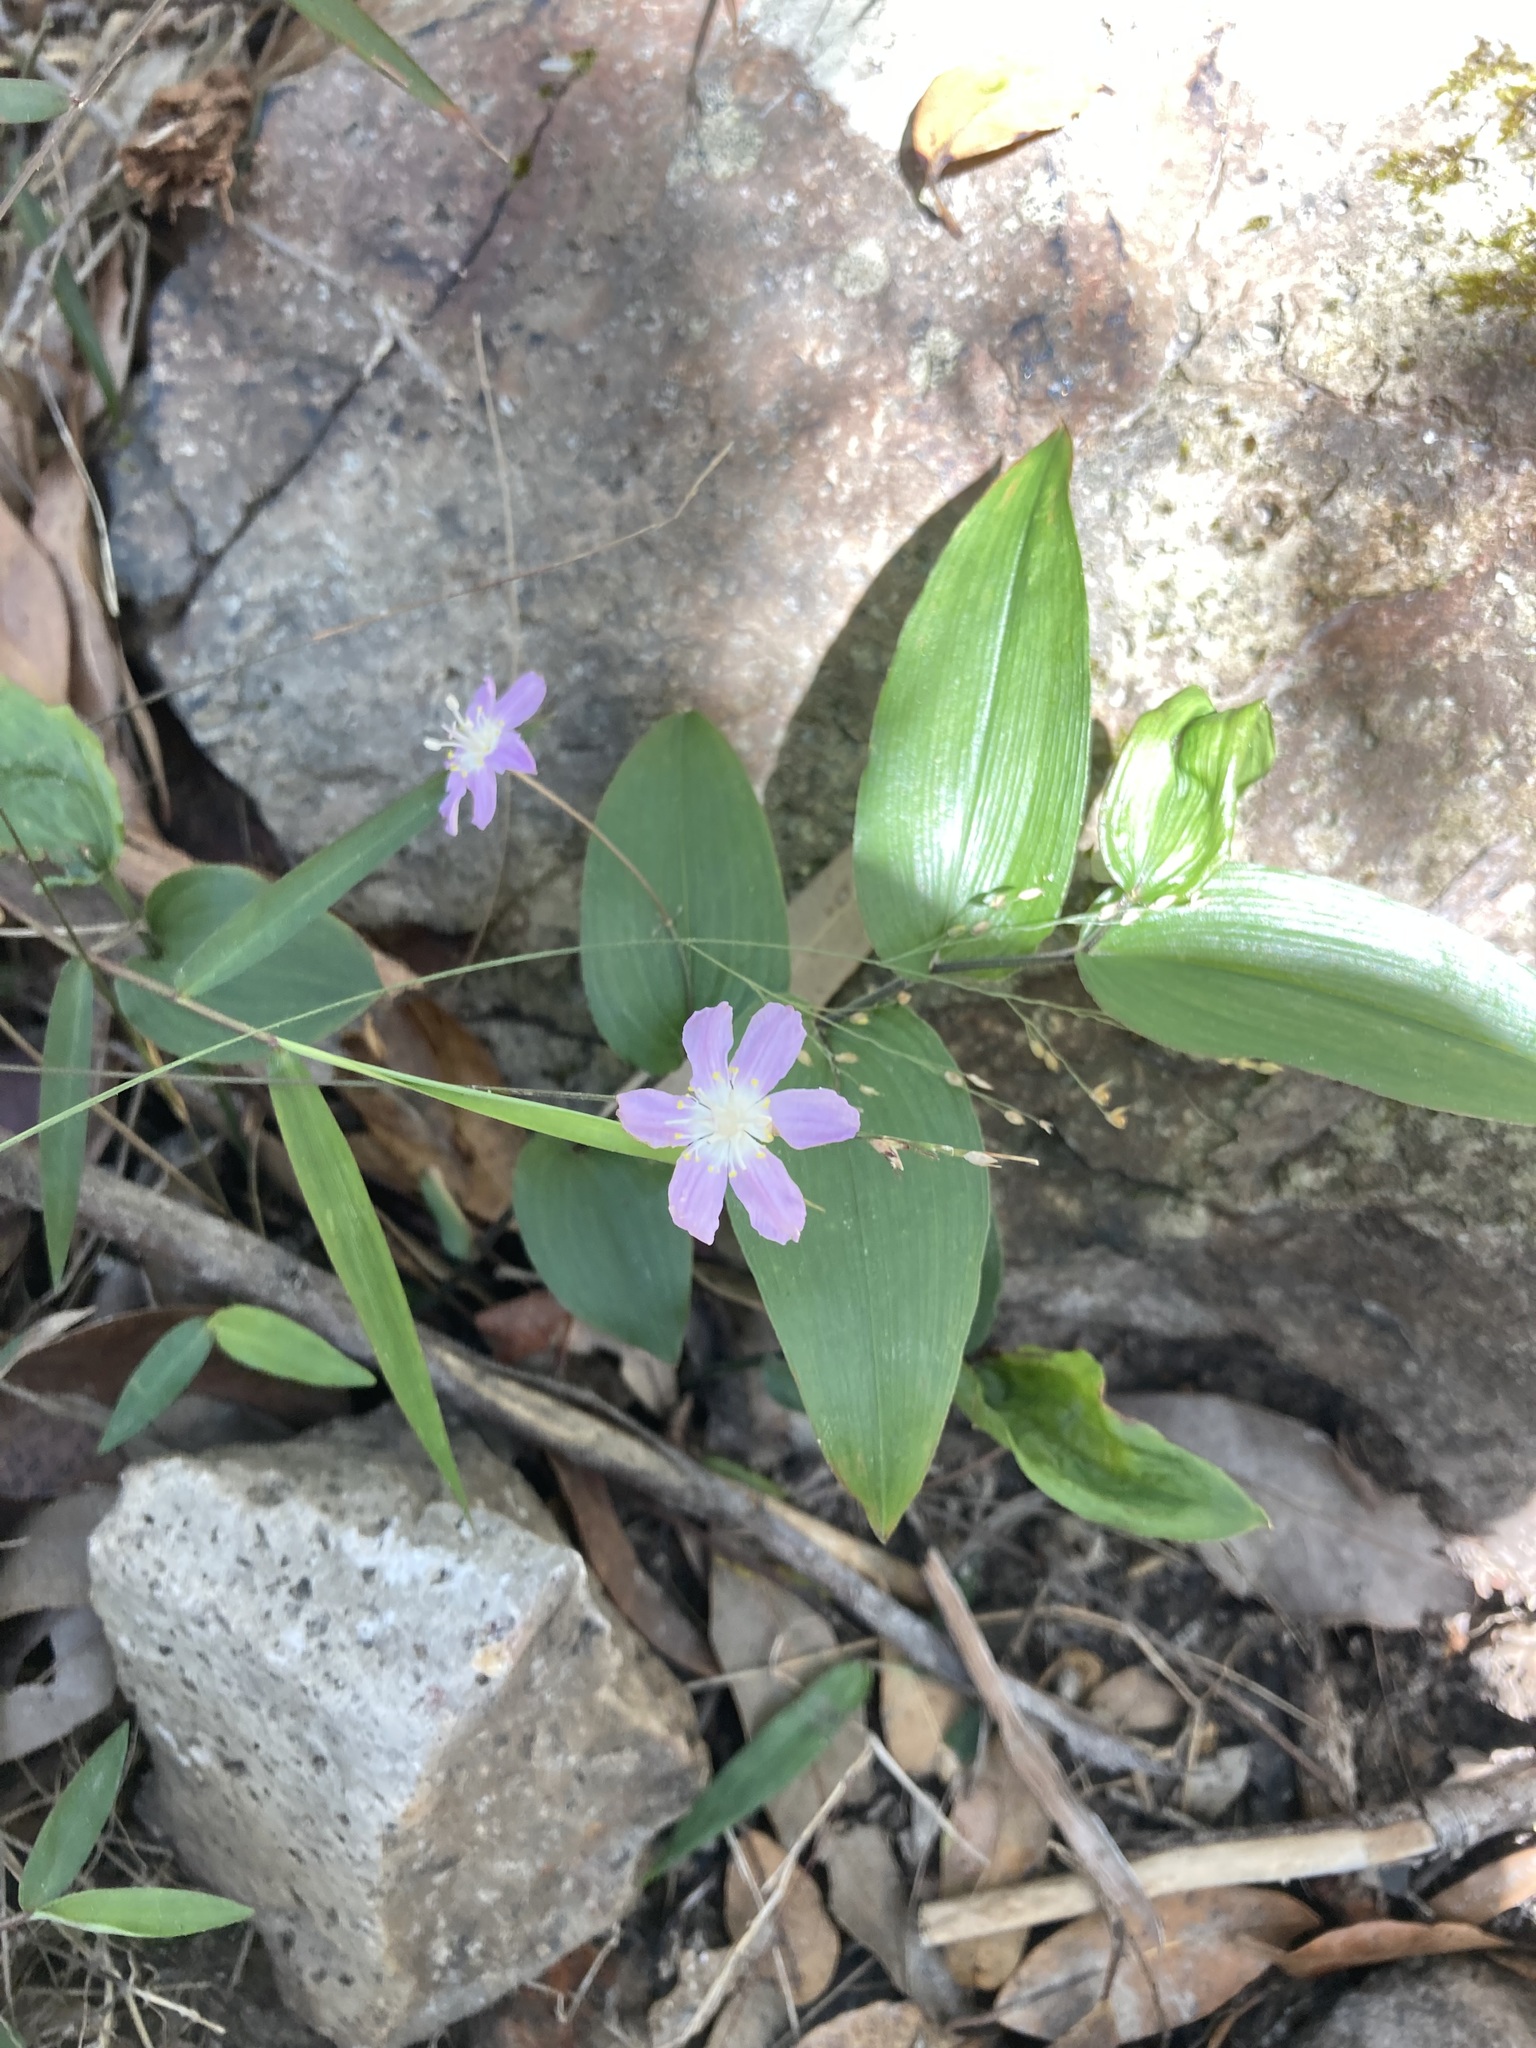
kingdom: Plantae
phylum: Tracheophyta
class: Liliopsida
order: Liliales
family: Colchicaceae
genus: Tripladenia
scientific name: Tripladenia cunninghamii
